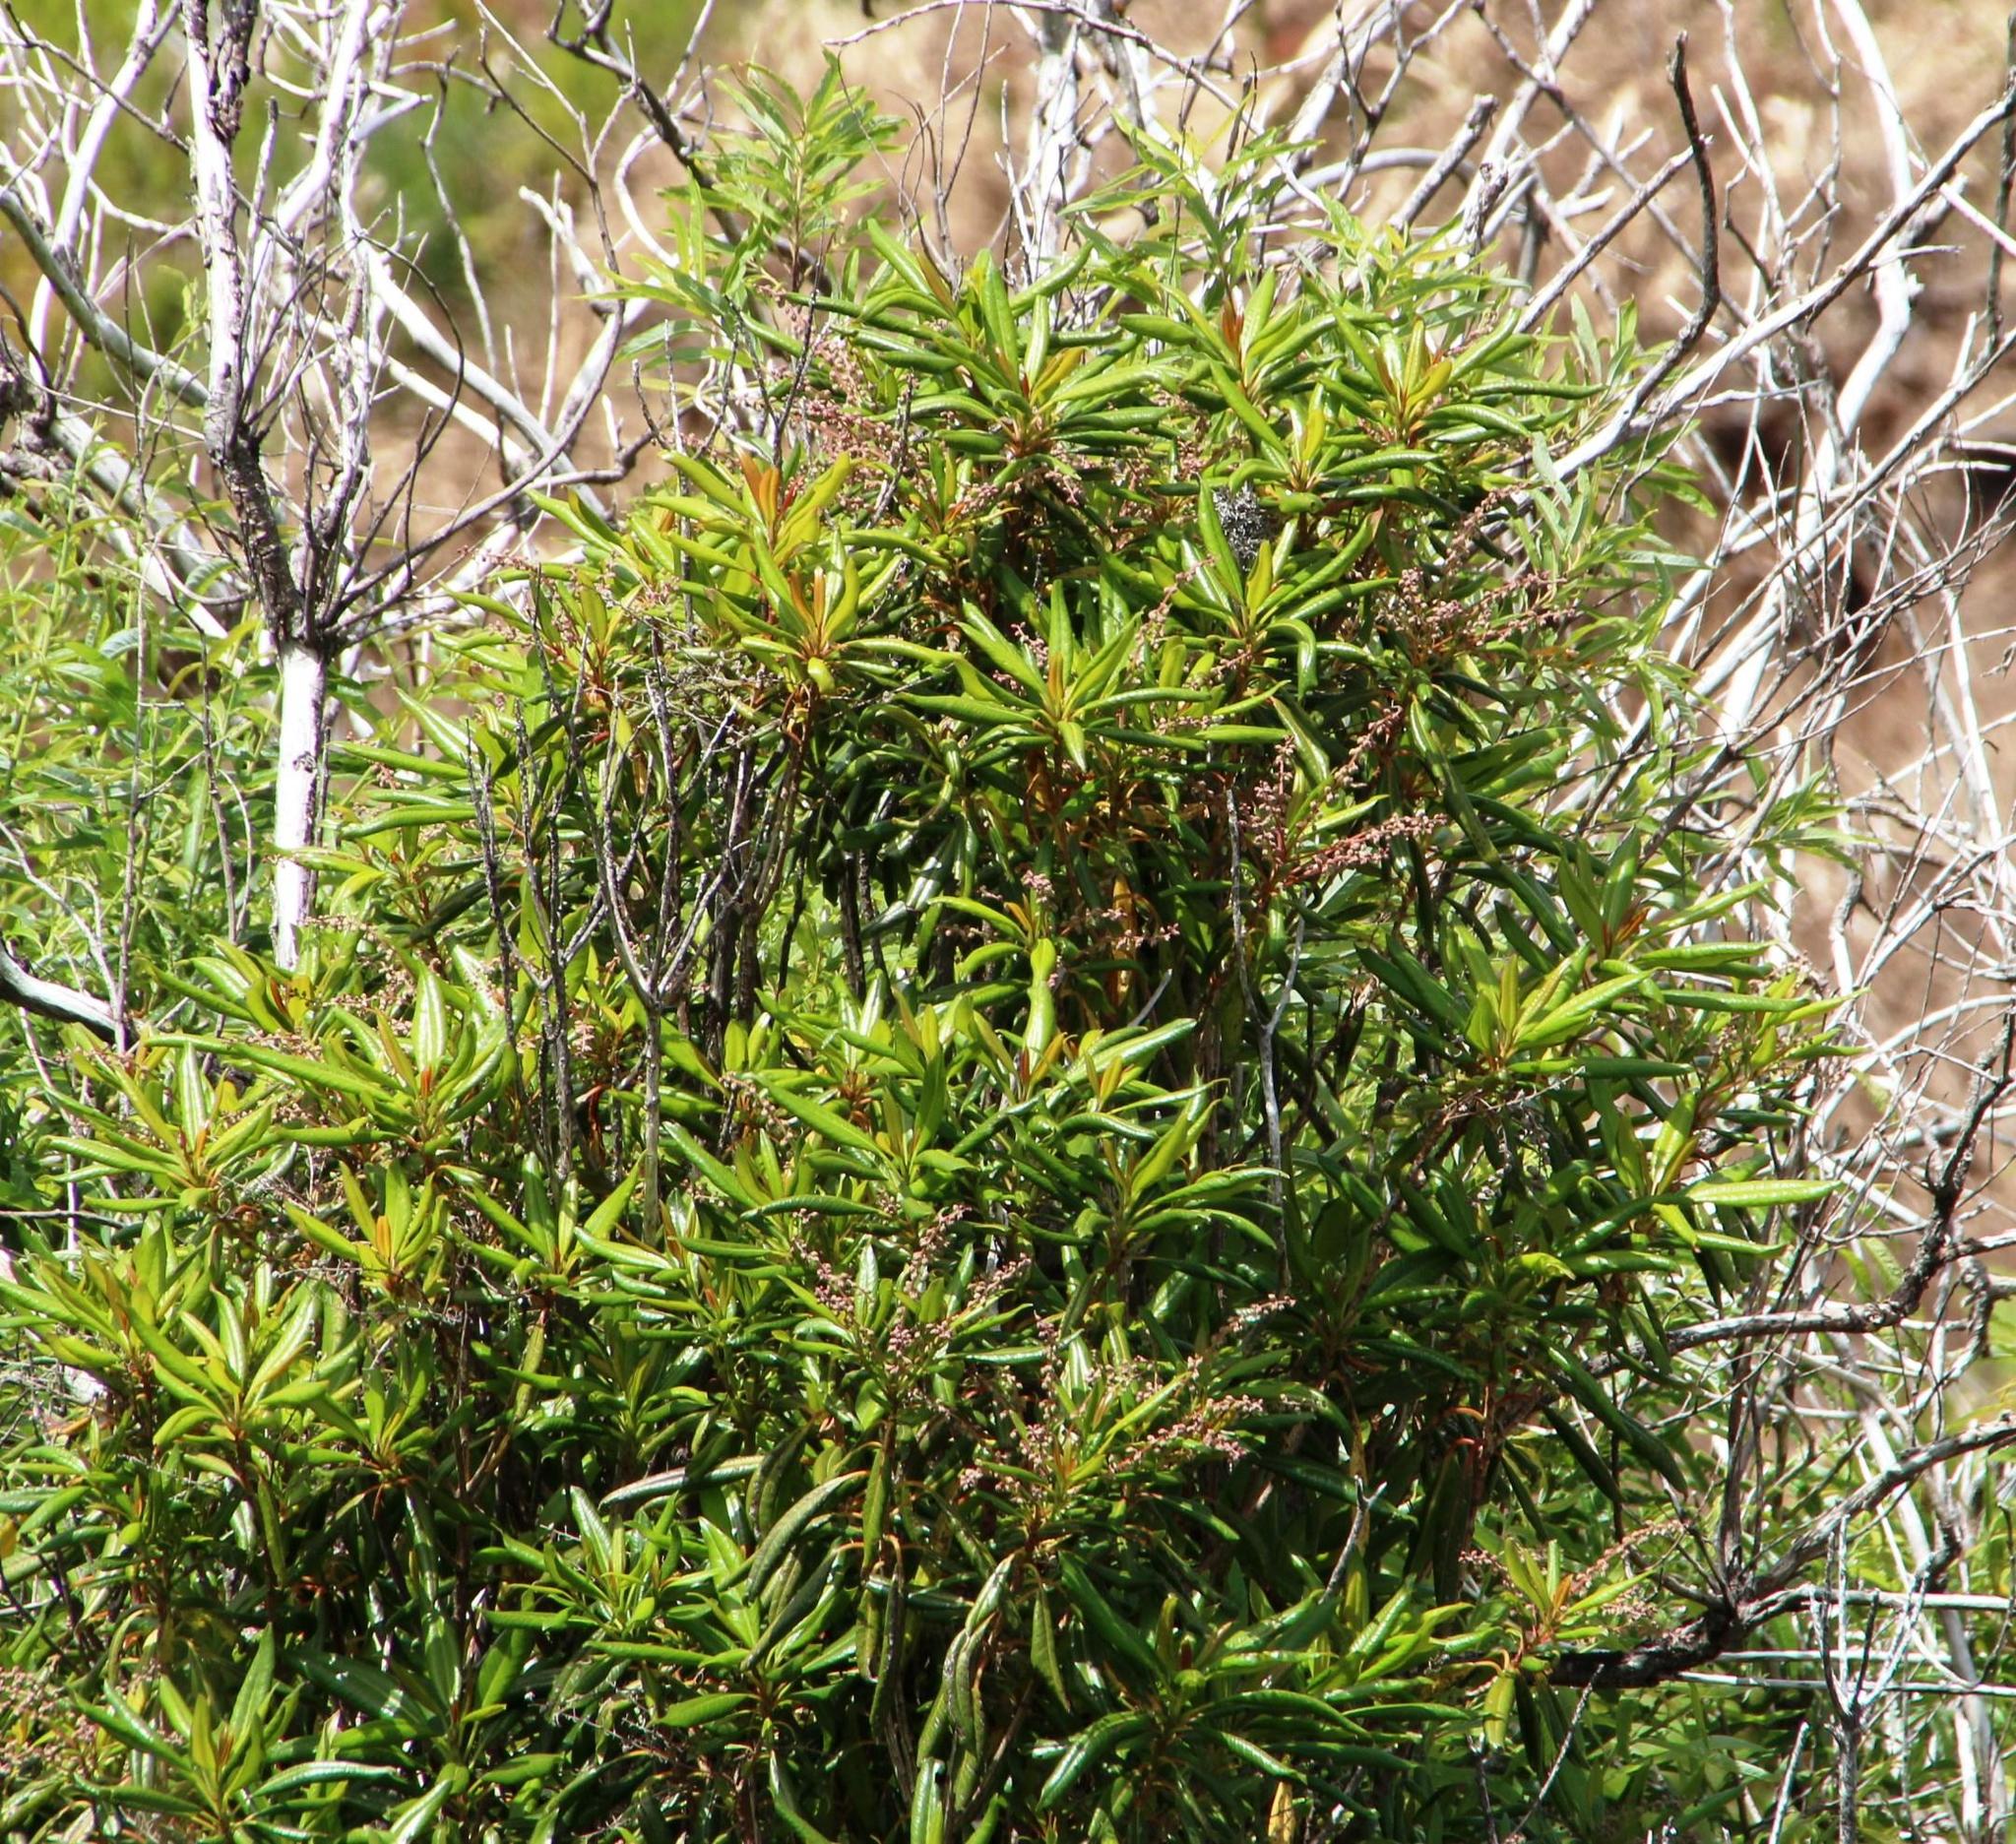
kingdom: Plantae
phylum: Tracheophyta
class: Magnoliopsida
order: Ericales
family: Clethraceae
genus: Clethra
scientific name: Clethra arborea
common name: Lily-of-the-valley-tree
